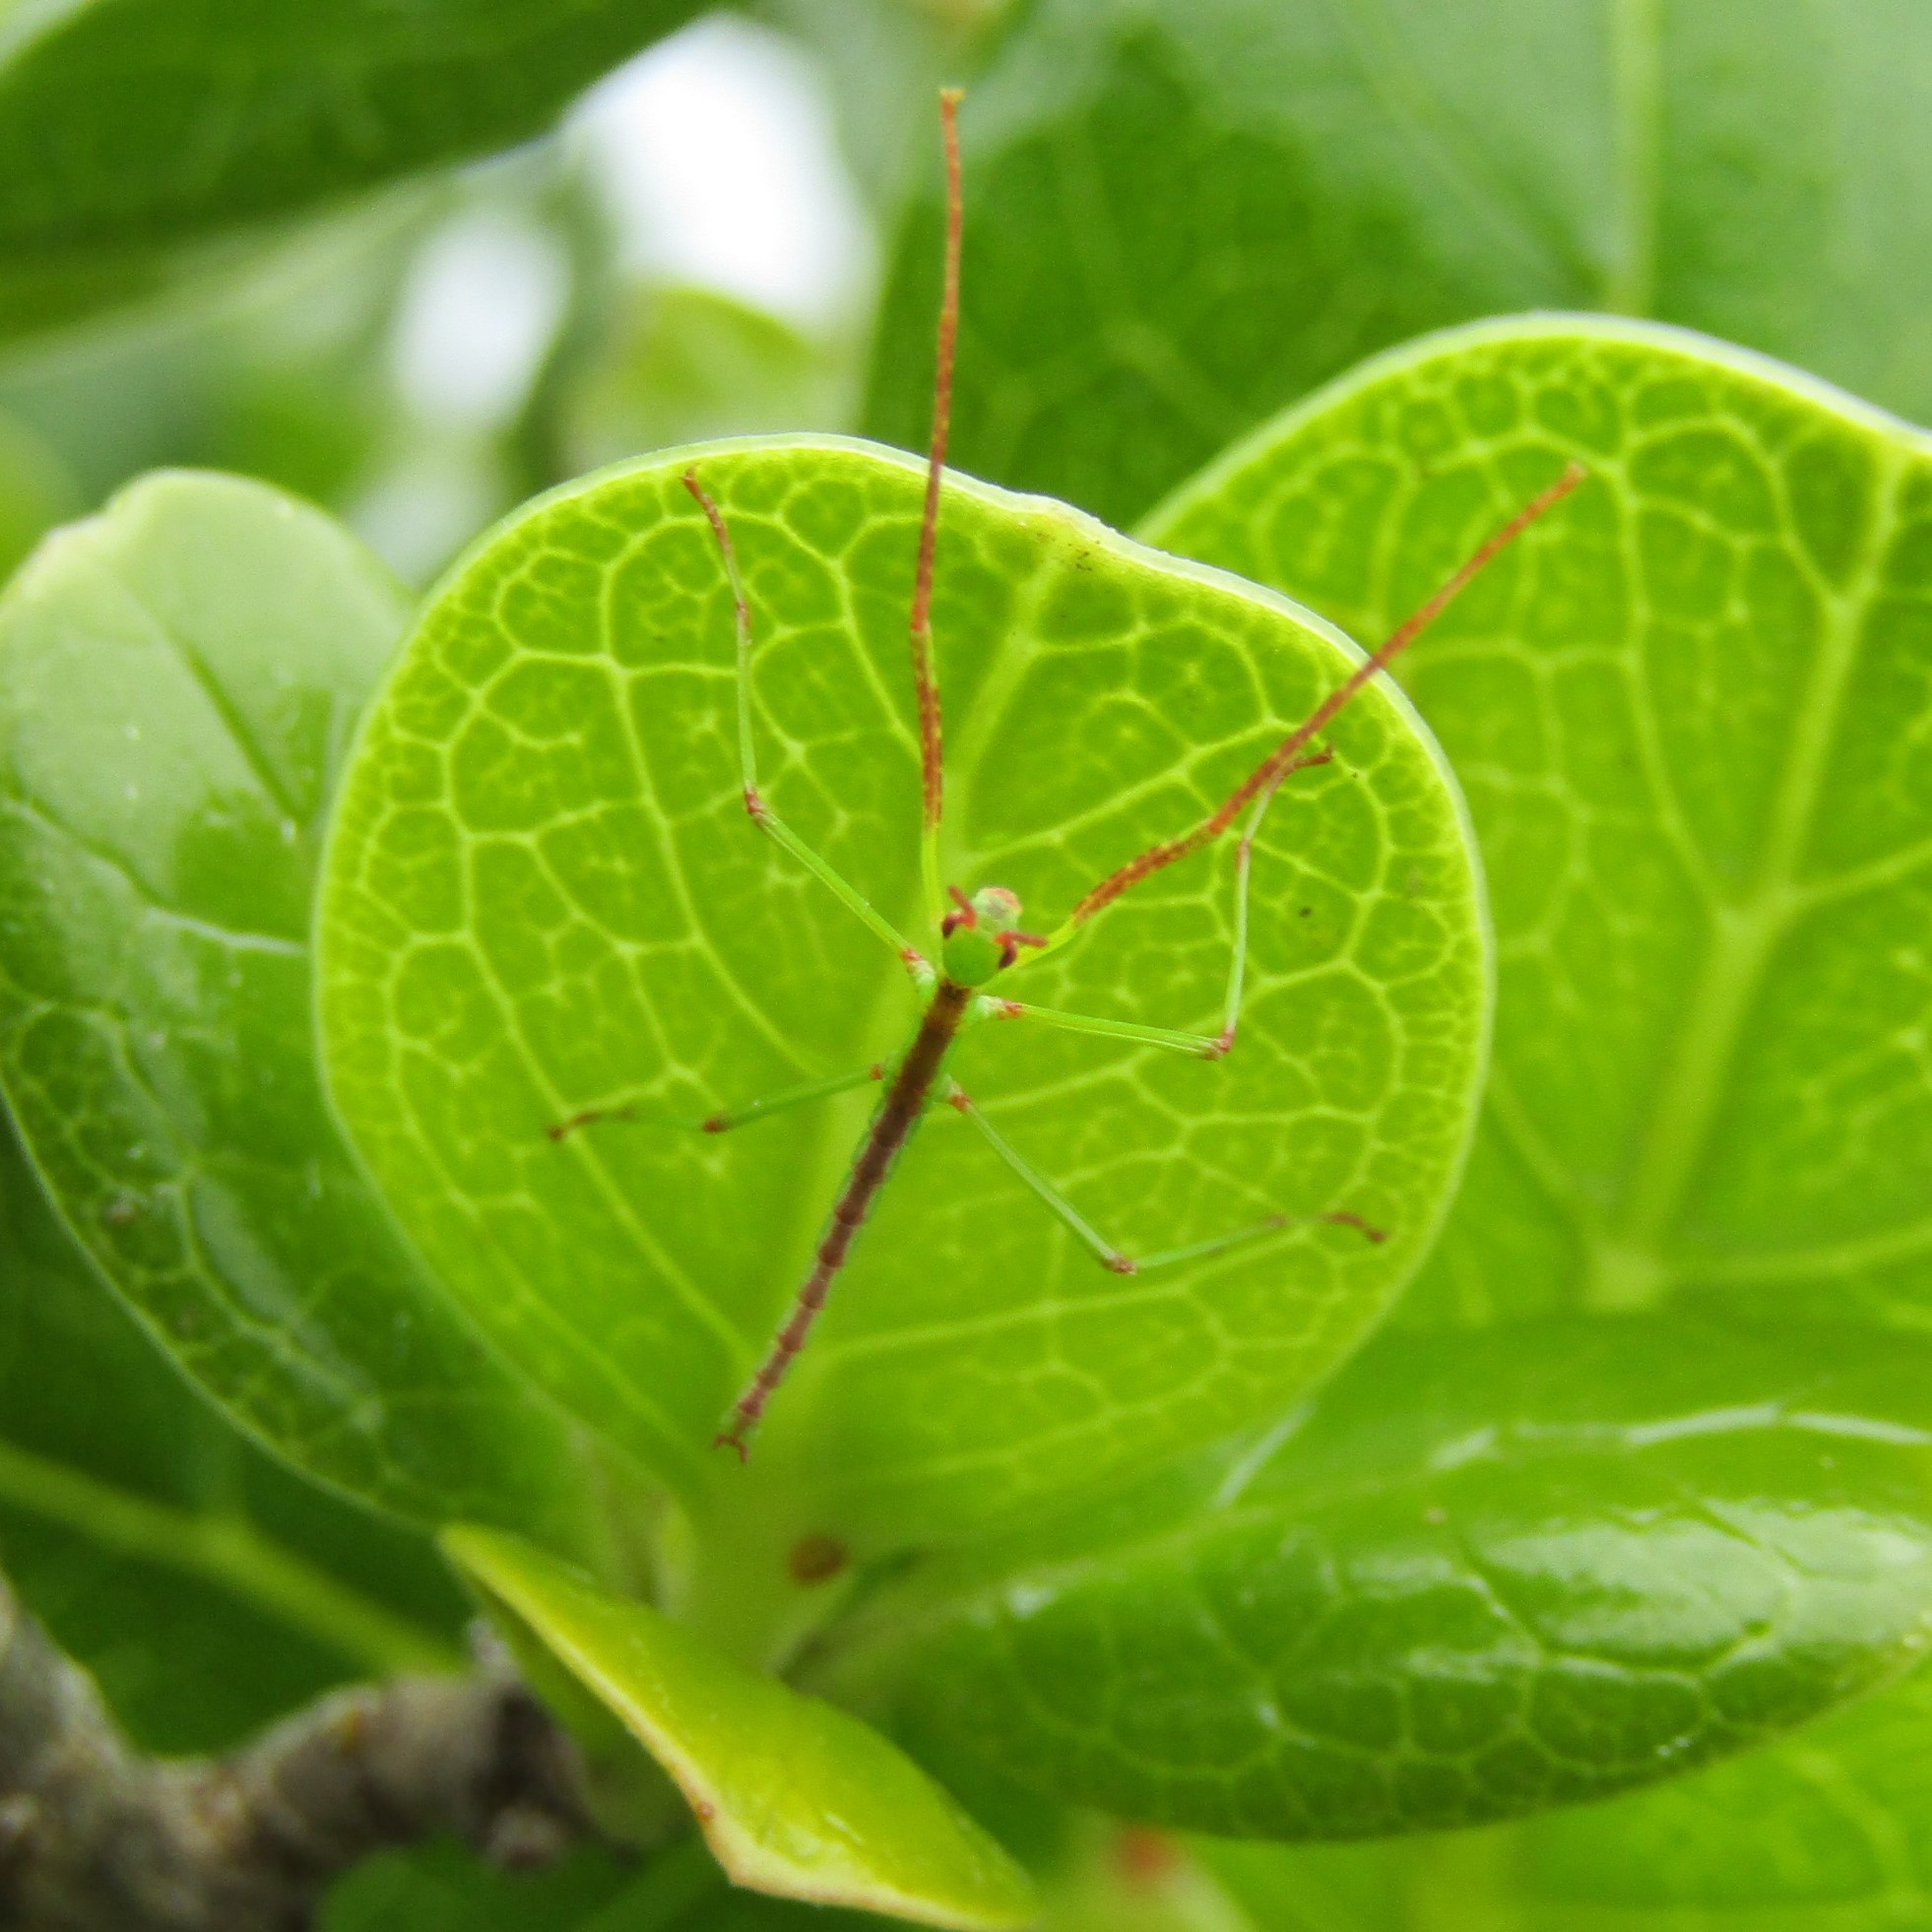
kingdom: Animalia
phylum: Arthropoda
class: Insecta
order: Phasmida
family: Phasmatidae
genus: Clitarchus
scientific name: Clitarchus hookeri
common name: Smooth stick insect
